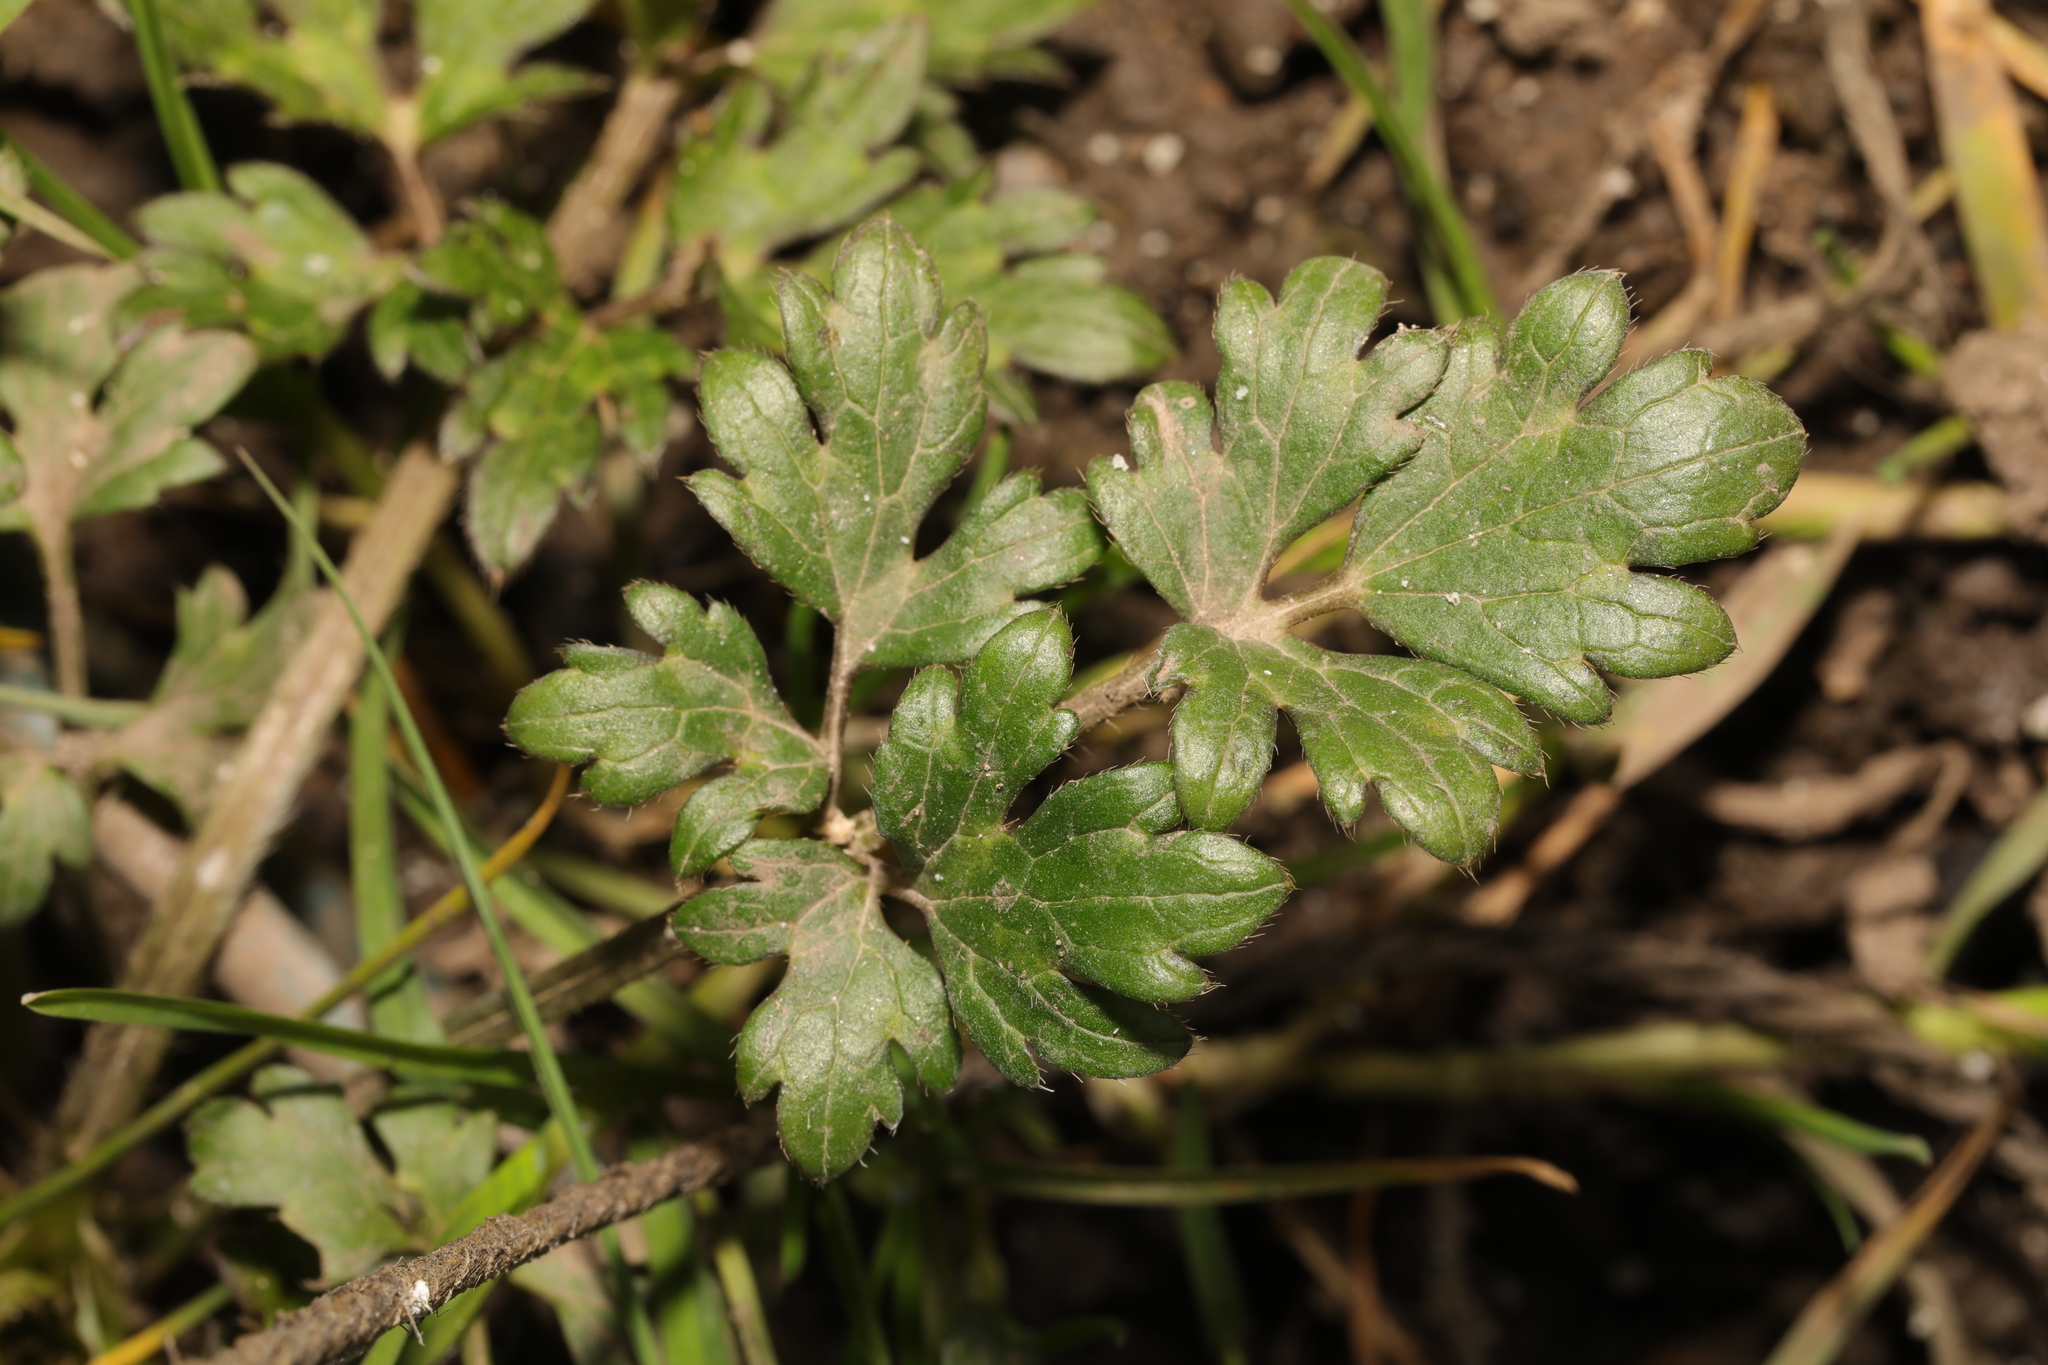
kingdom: Plantae
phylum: Tracheophyta
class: Magnoliopsida
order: Ranunculales
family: Ranunculaceae
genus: Ranunculus
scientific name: Ranunculus repens
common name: Creeping buttercup
